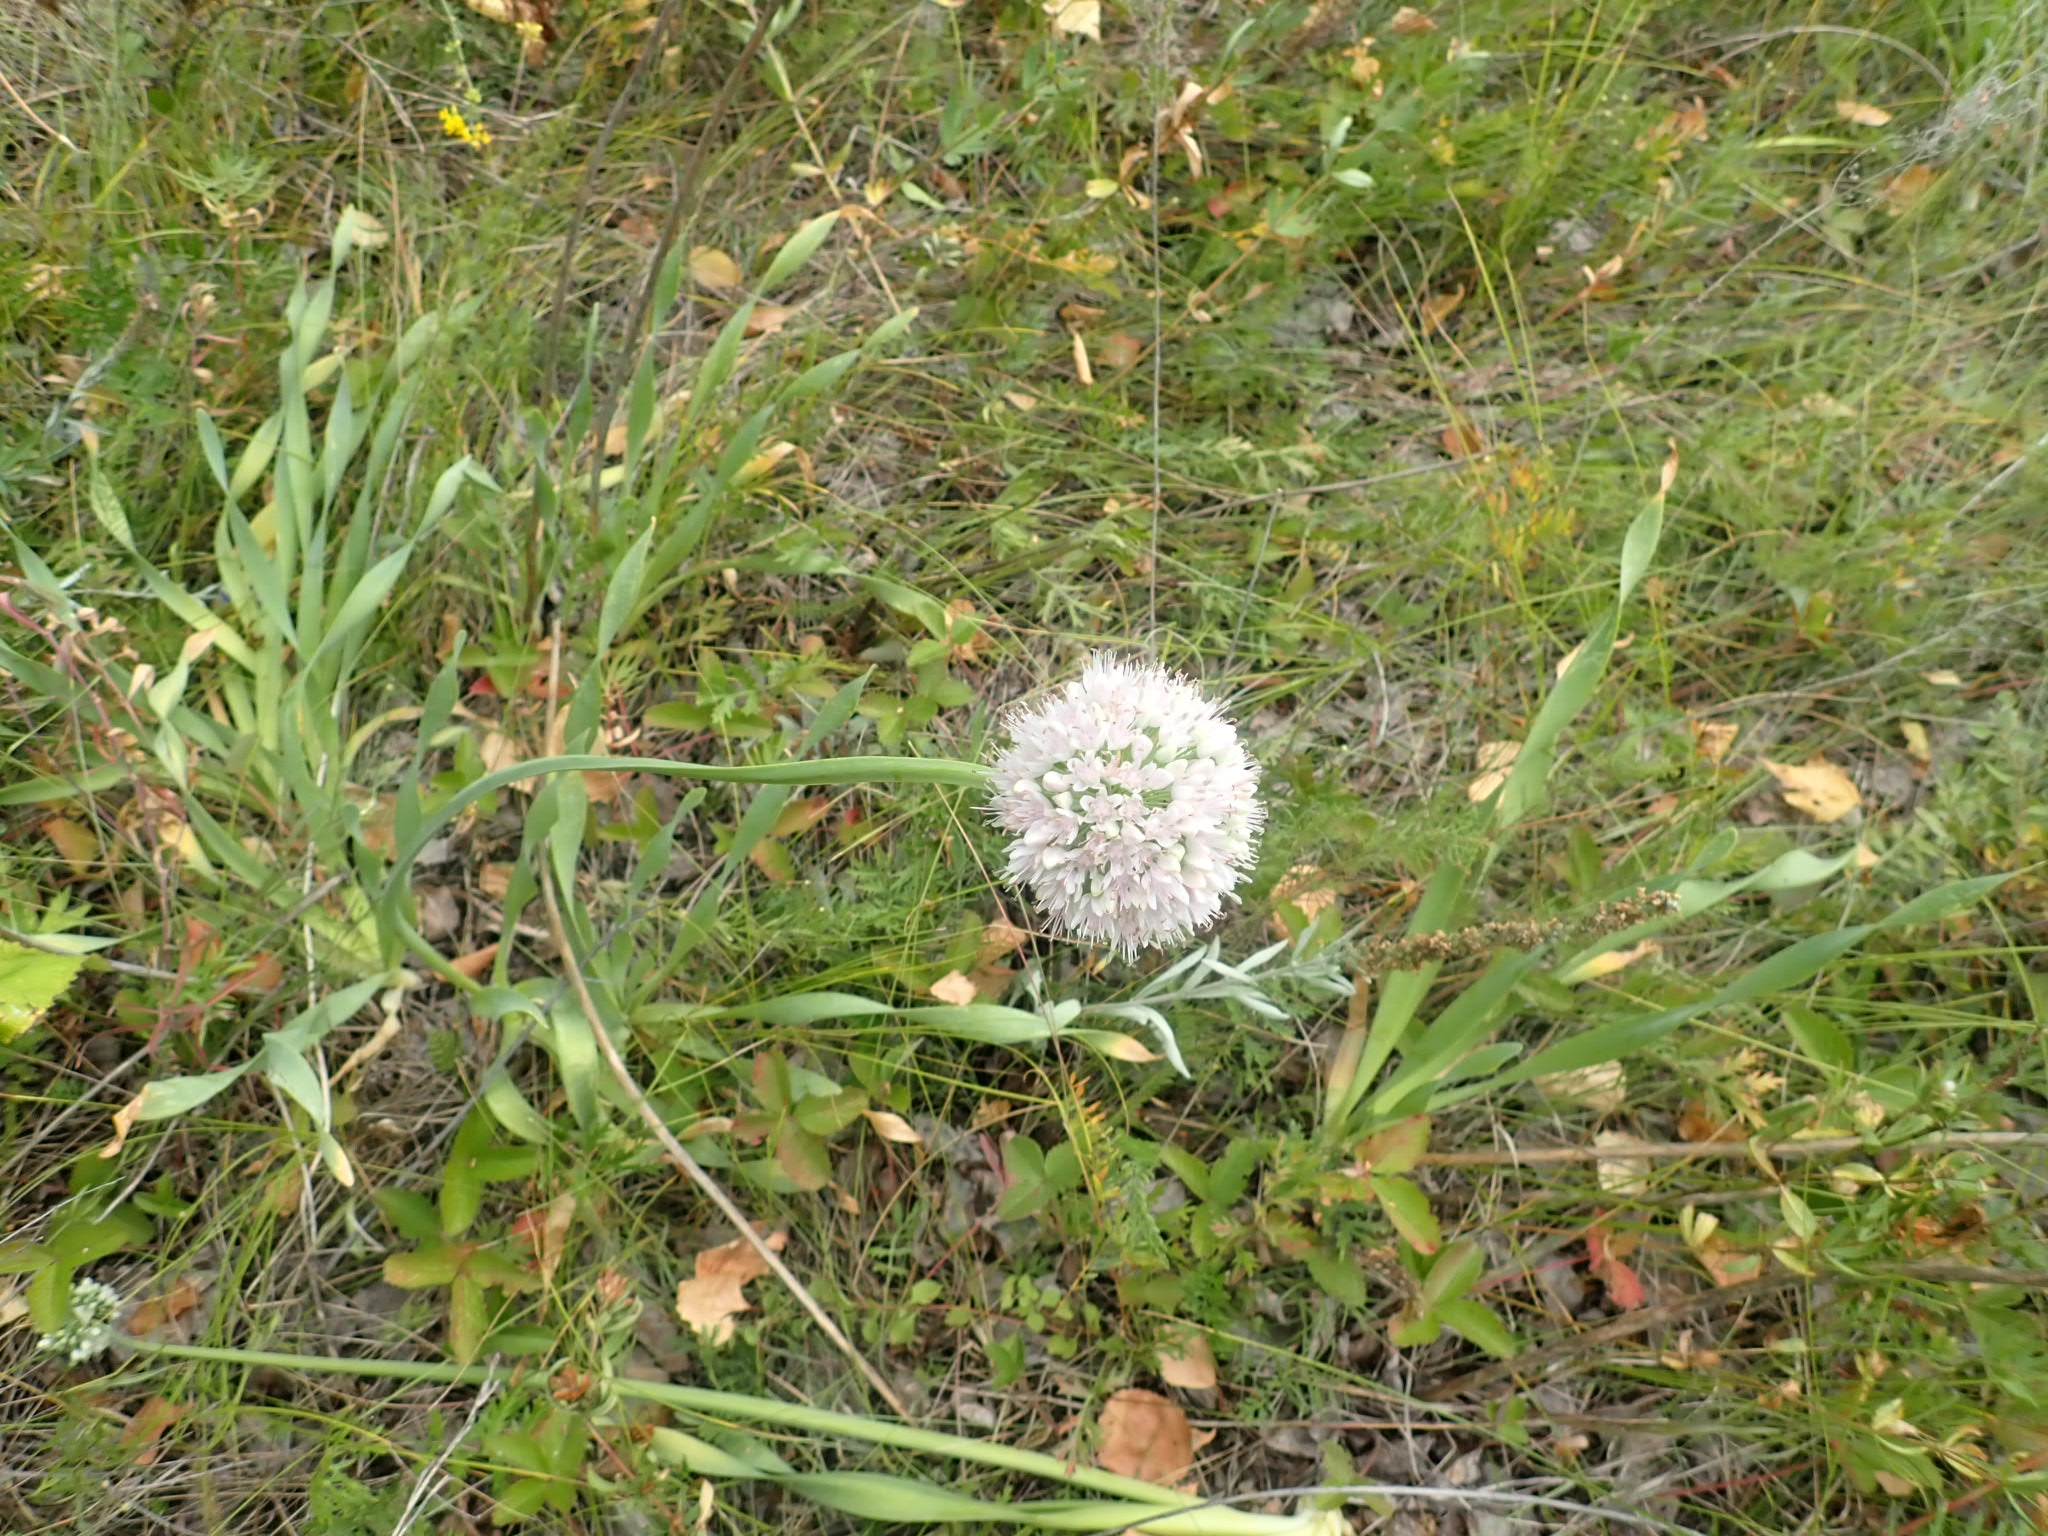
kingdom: Plantae
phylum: Tracheophyta
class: Liliopsida
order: Asparagales
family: Amaryllidaceae
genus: Allium
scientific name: Allium nutans
